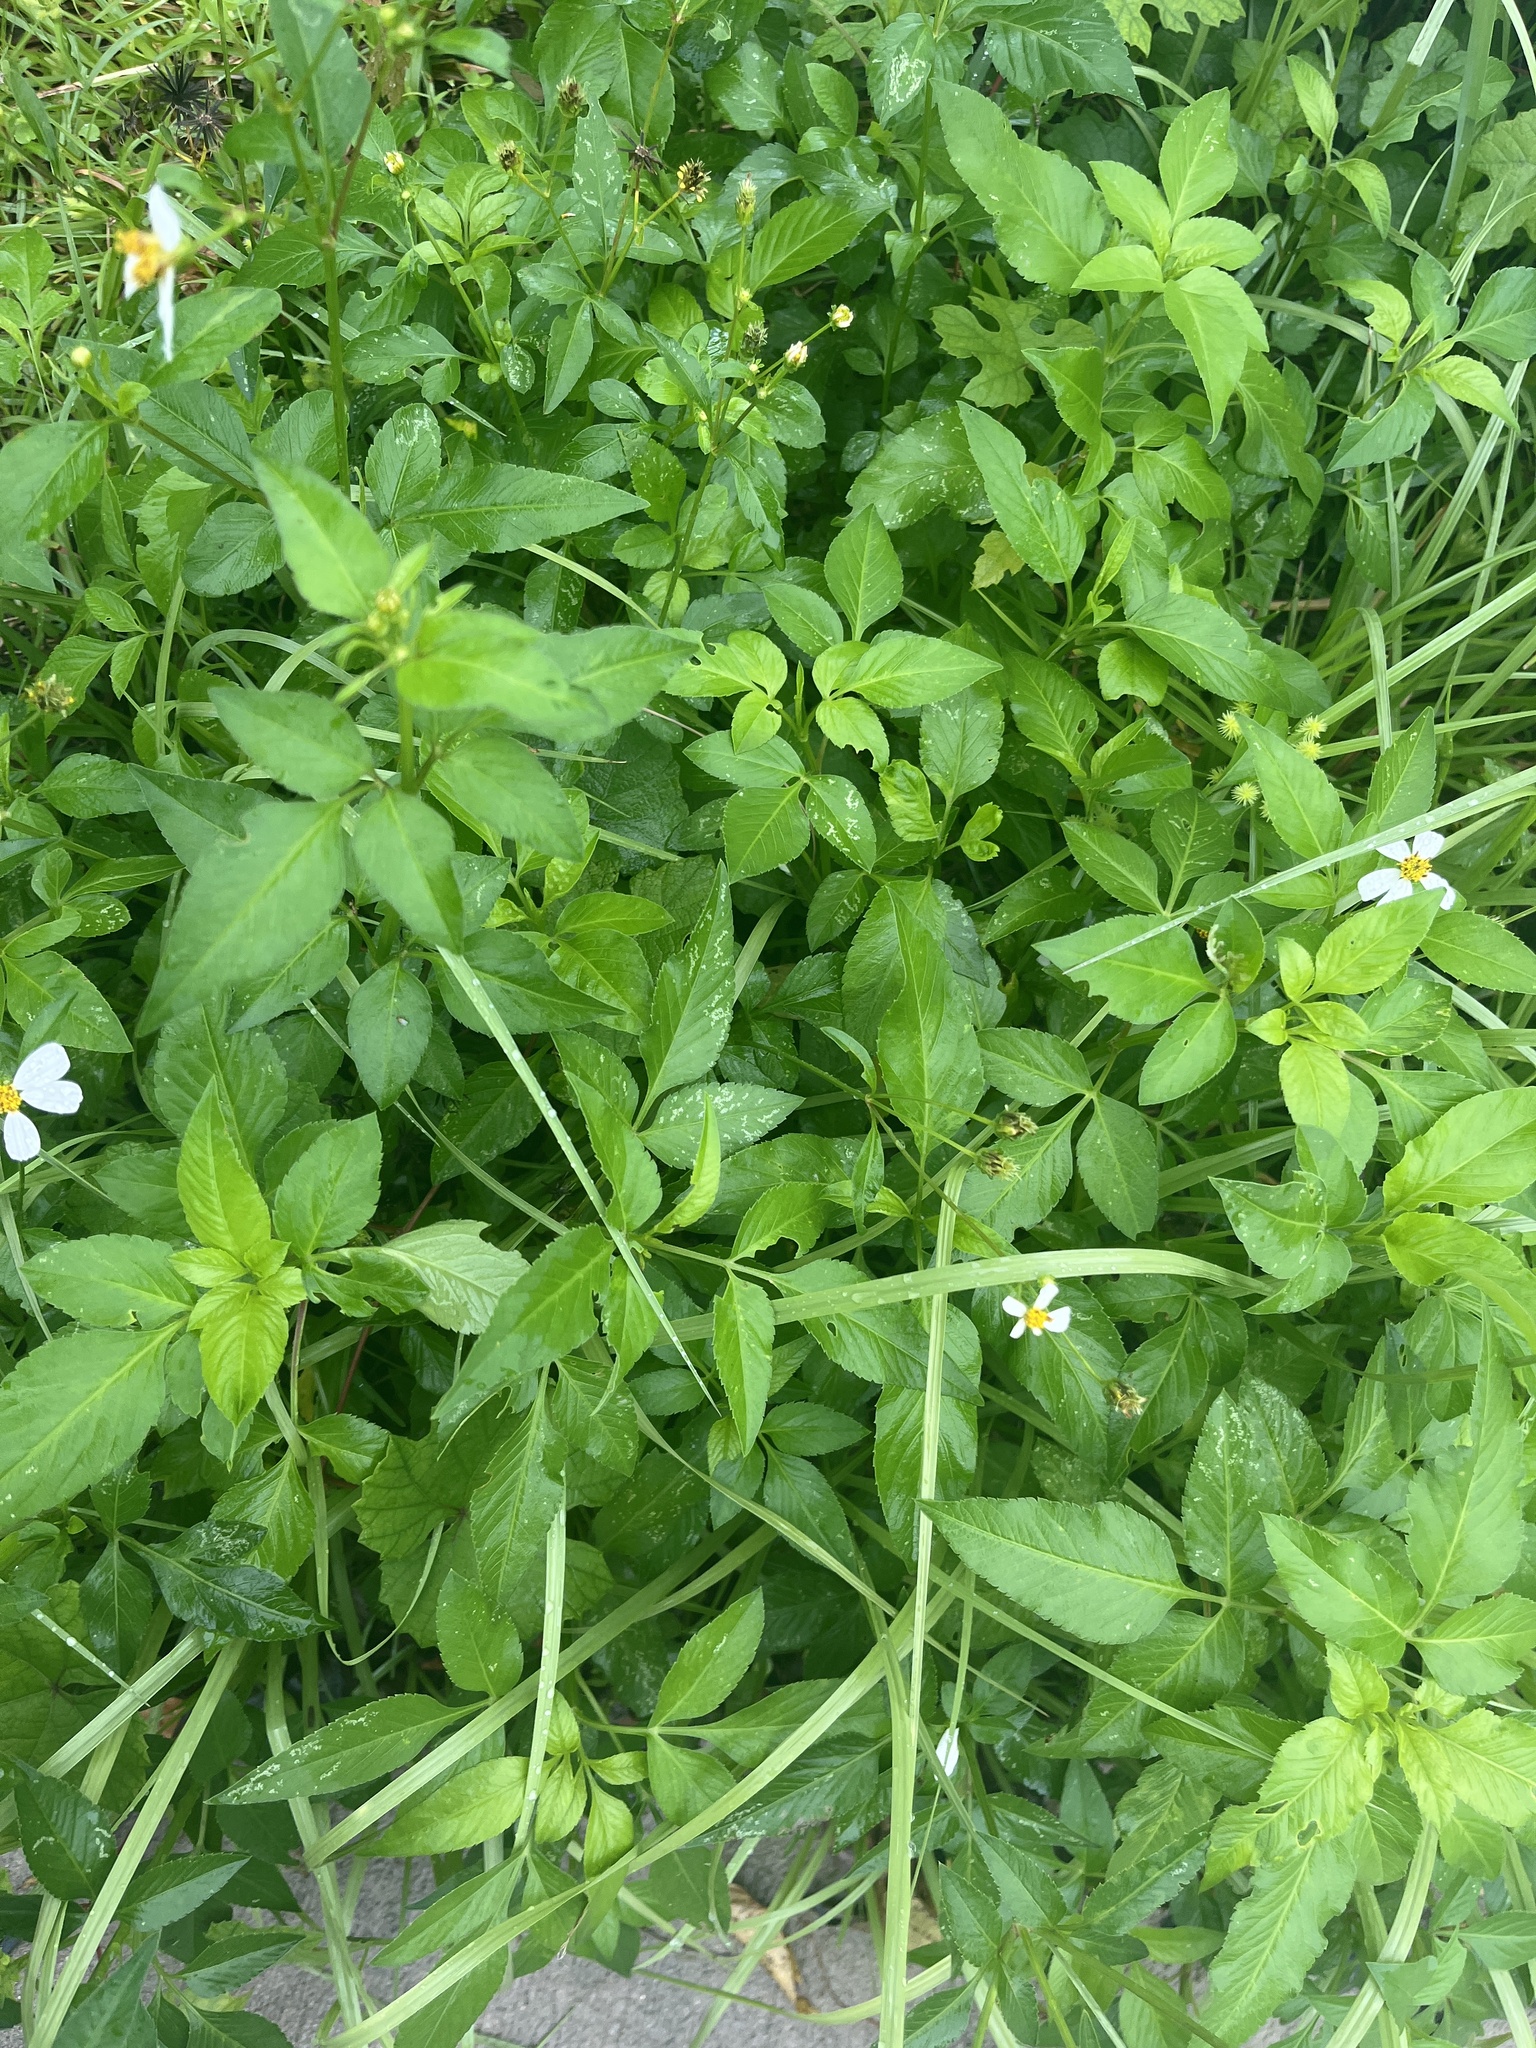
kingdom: Plantae
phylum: Tracheophyta
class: Magnoliopsida
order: Asterales
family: Asteraceae
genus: Bidens
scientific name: Bidens alba
